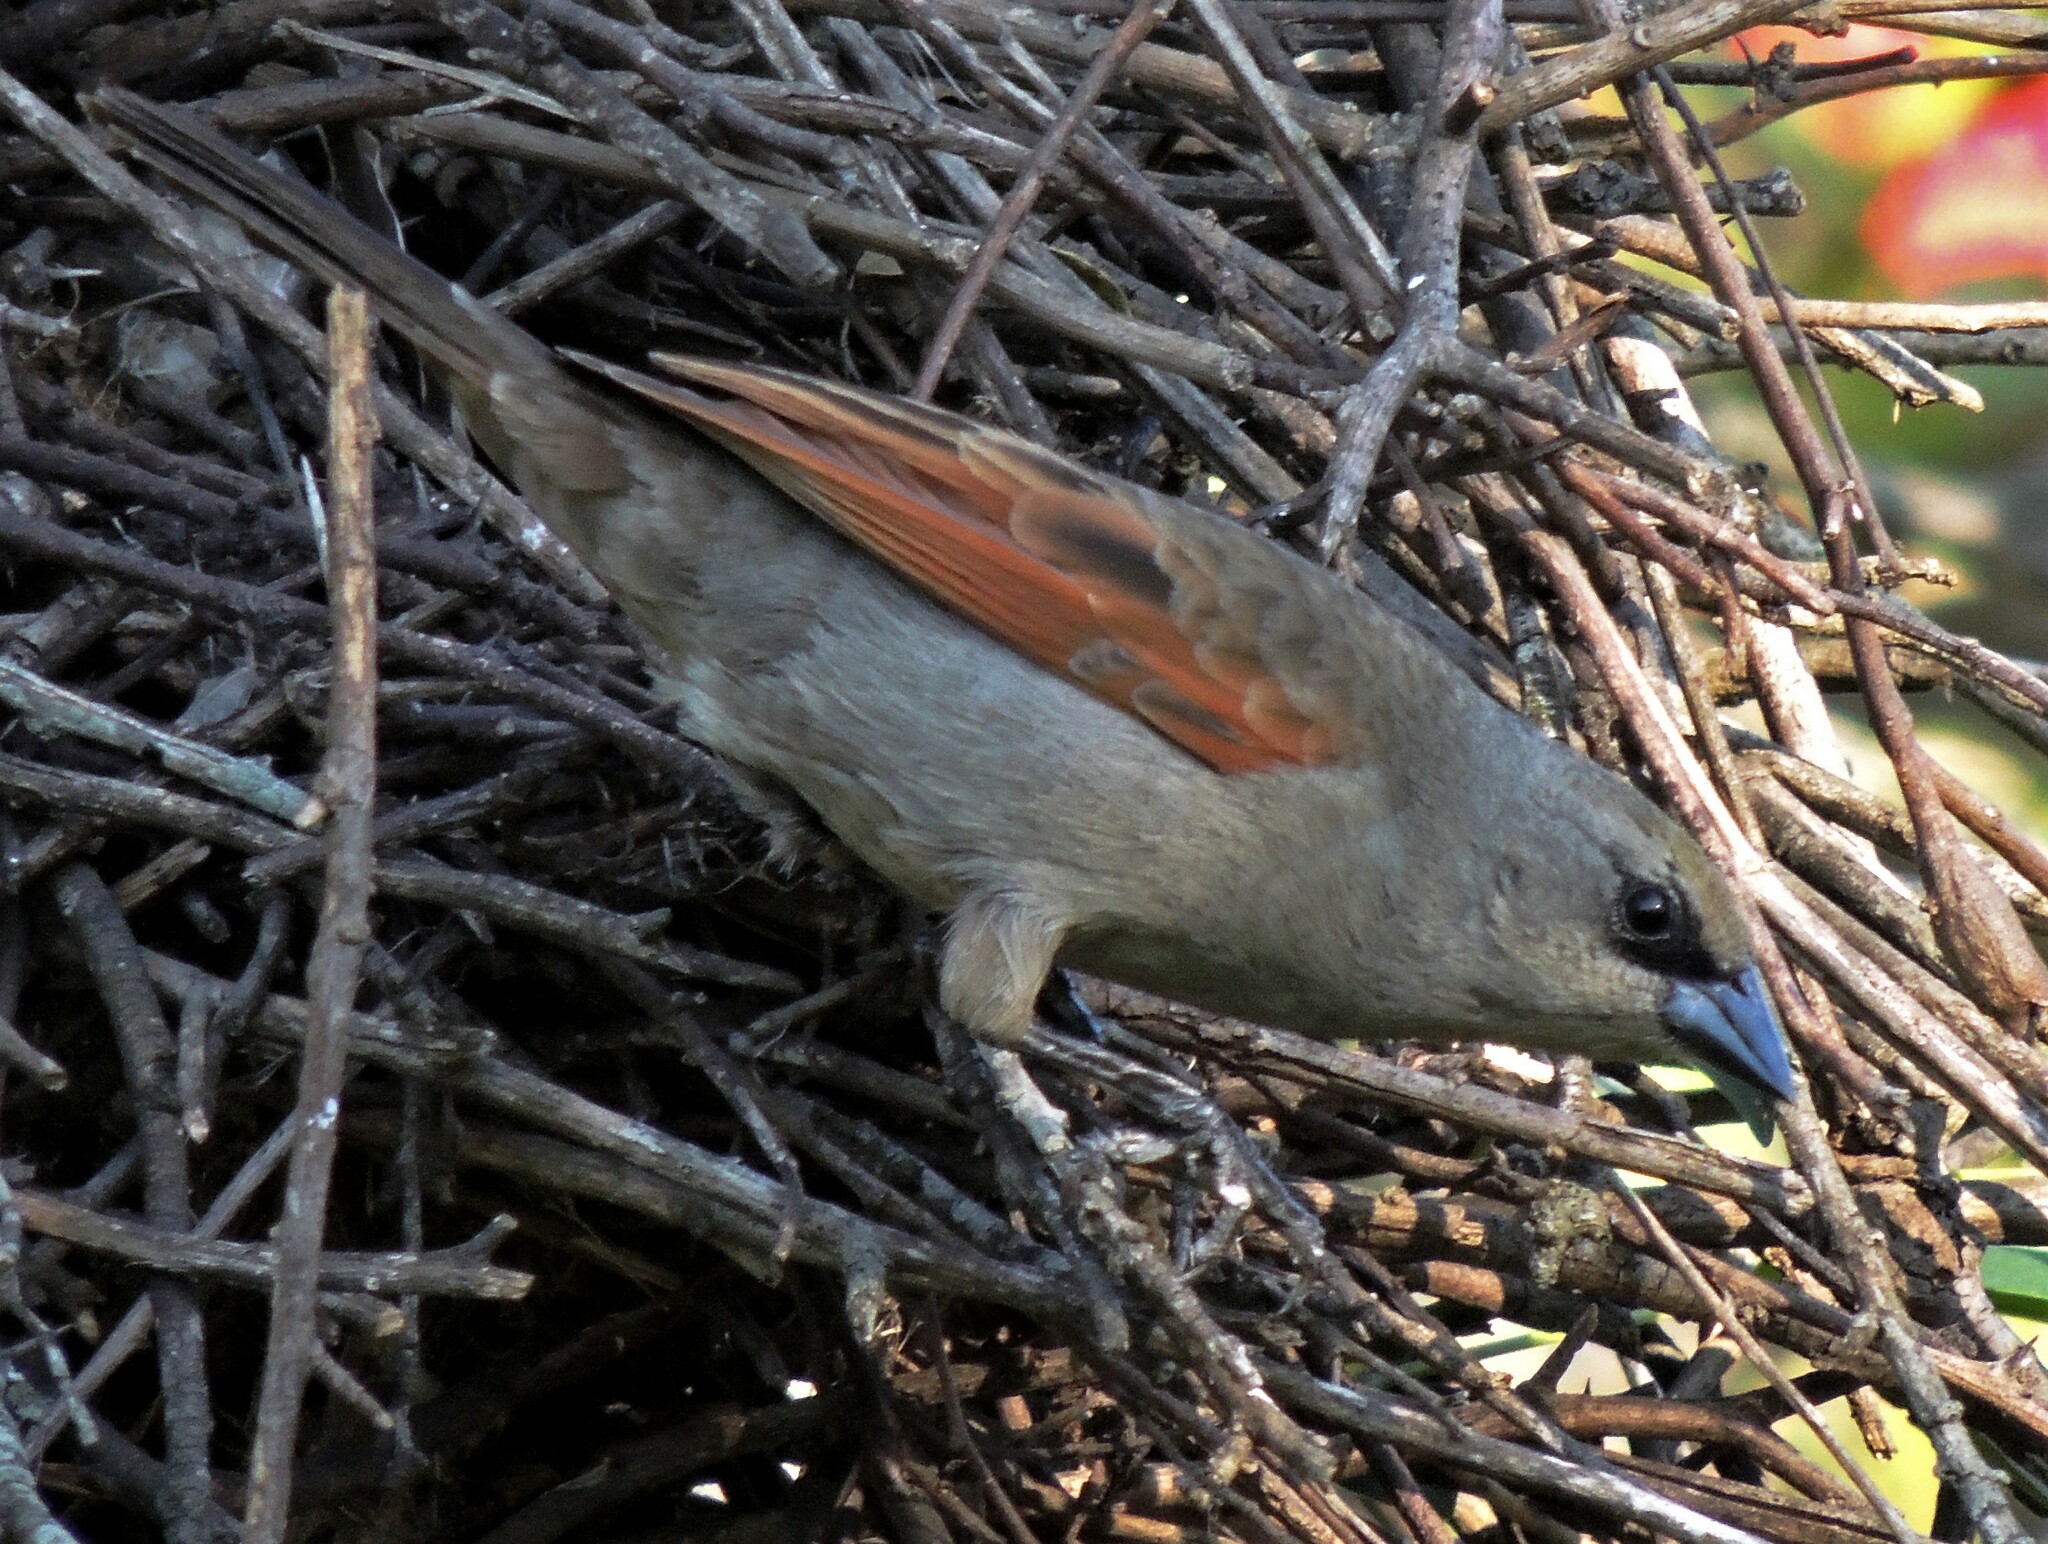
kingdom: Animalia
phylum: Chordata
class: Aves
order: Passeriformes
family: Icteridae
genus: Agelaioides
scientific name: Agelaioides badius
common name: Baywing
